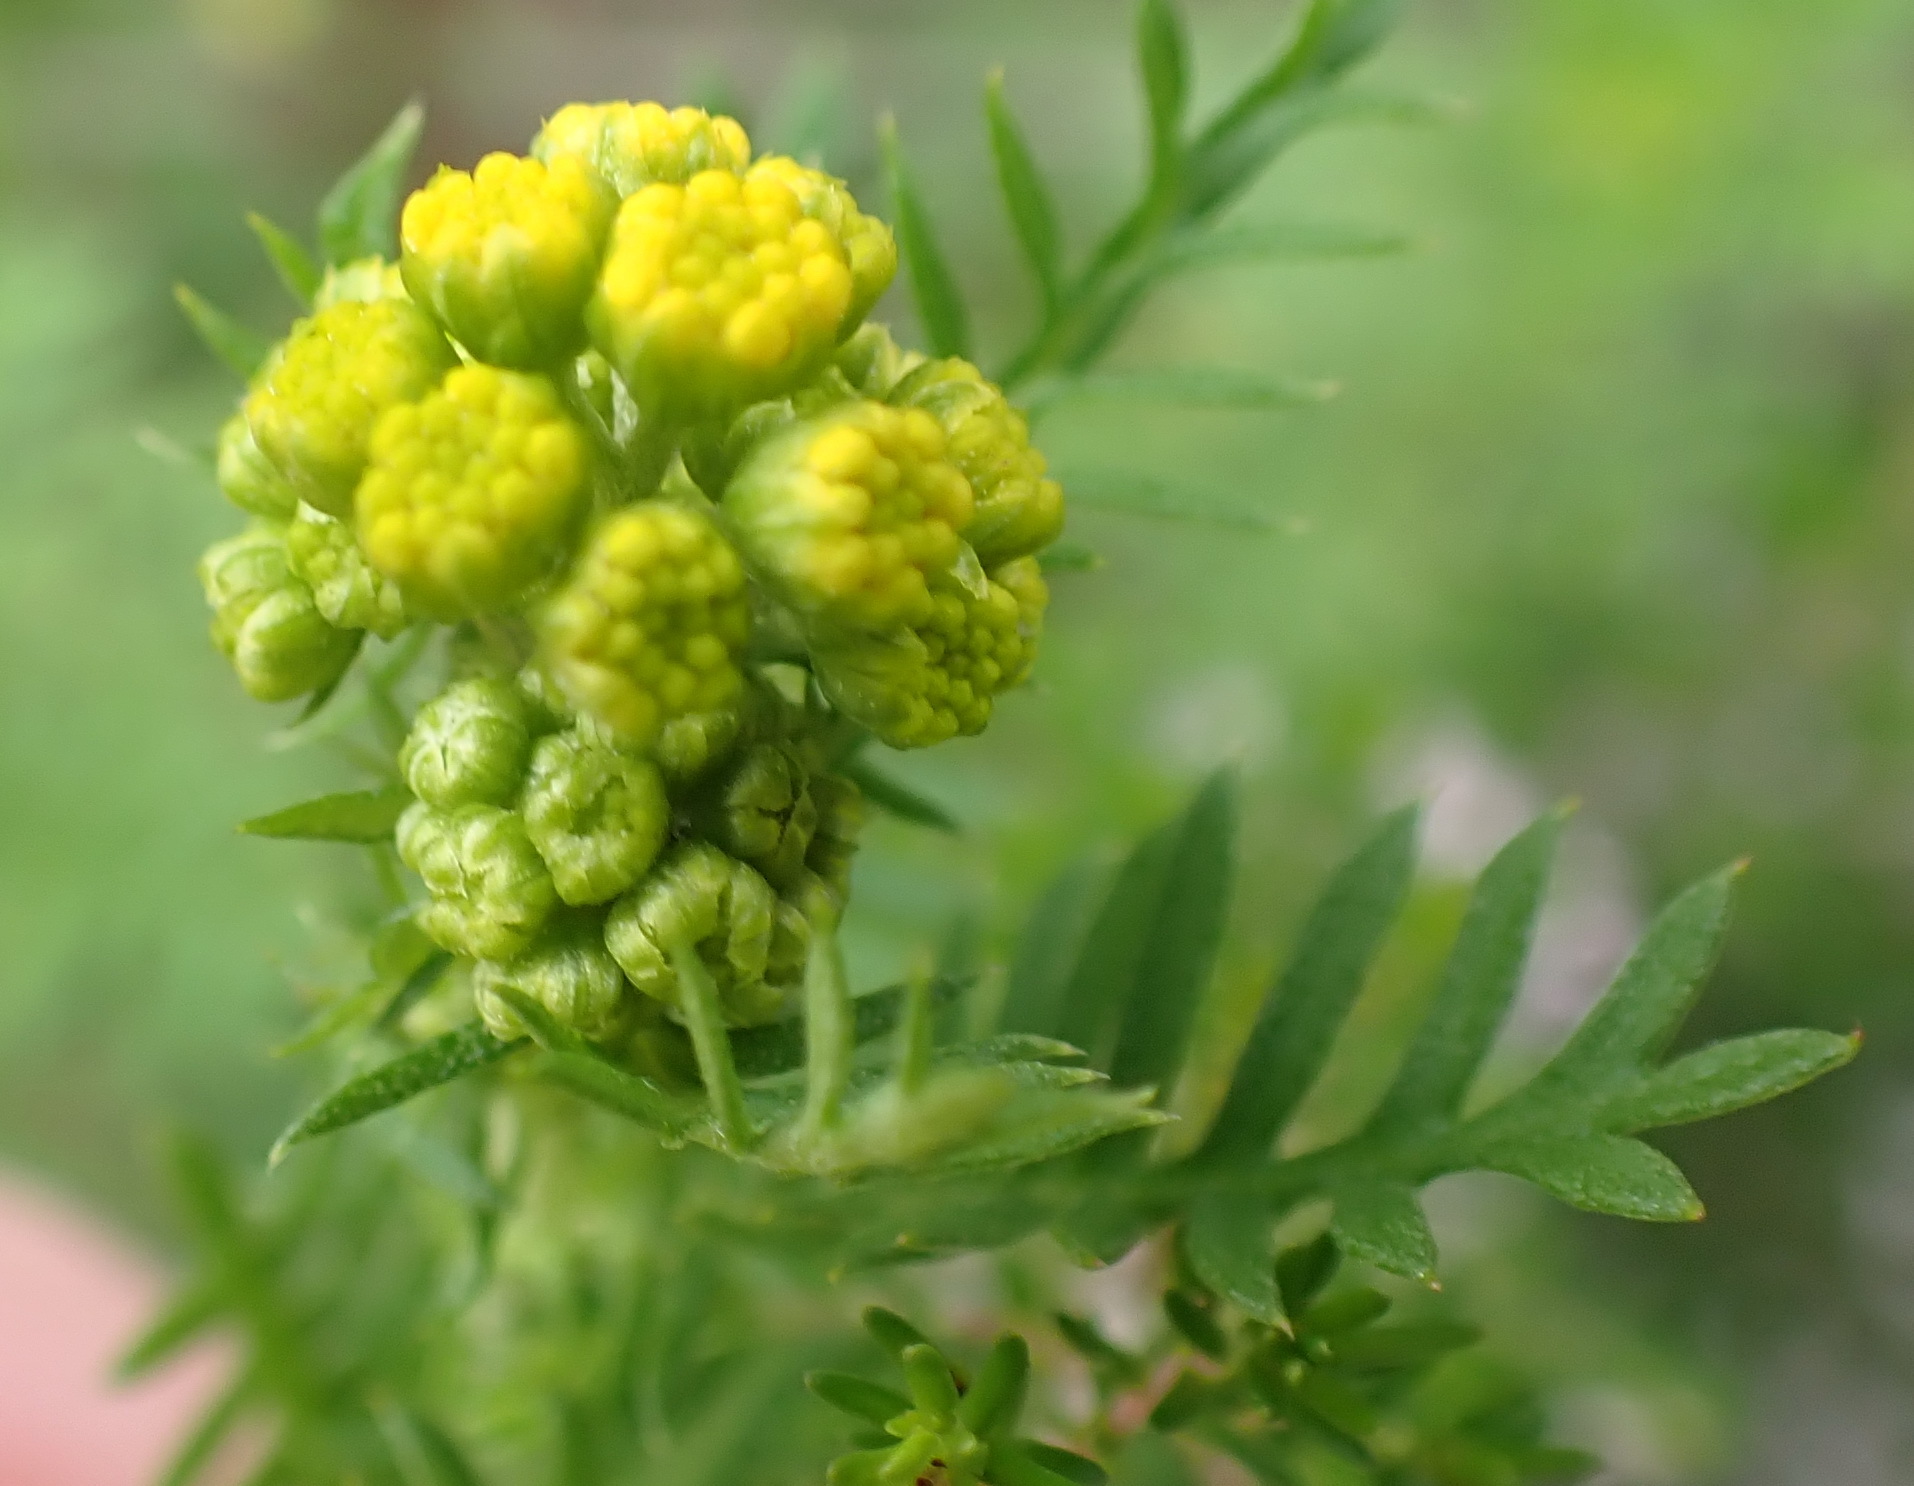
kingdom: Plantae
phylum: Tracheophyta
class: Magnoliopsida
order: Asterales
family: Asteraceae
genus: Hippia
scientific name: Hippia frutescens
